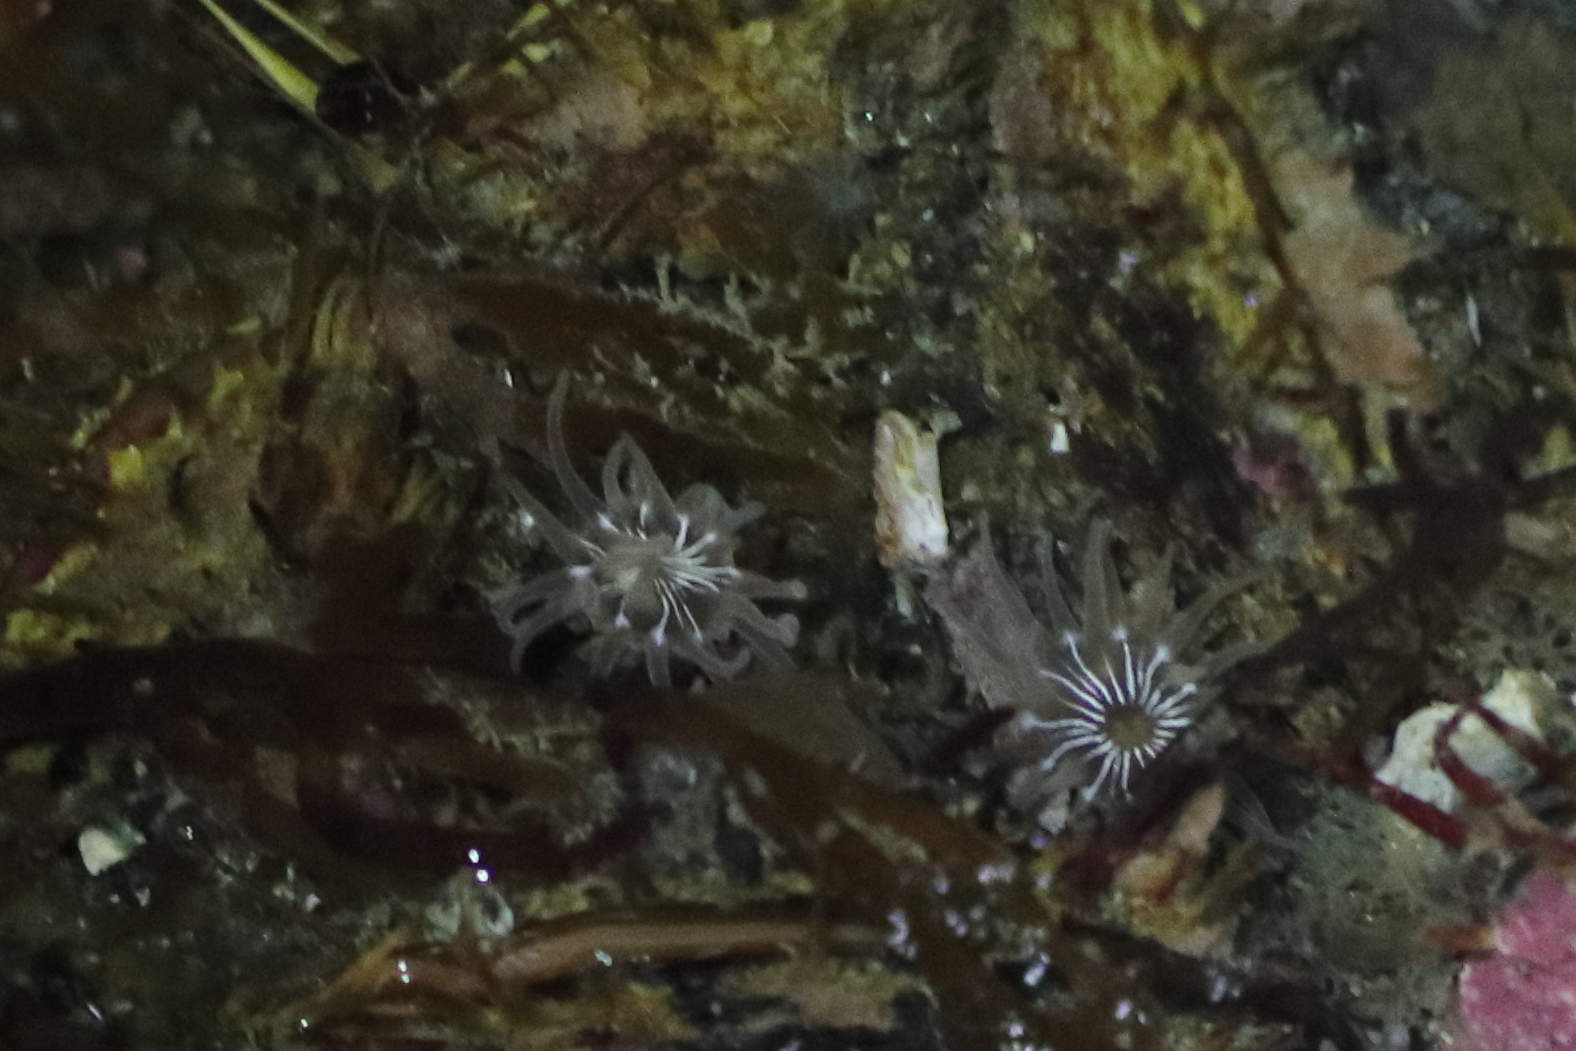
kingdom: Animalia
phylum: Cnidaria
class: Anthozoa
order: Actiniaria
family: Actiniidae
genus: Aulactinia
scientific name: Aulactinia incubans
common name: Incubating anemone
